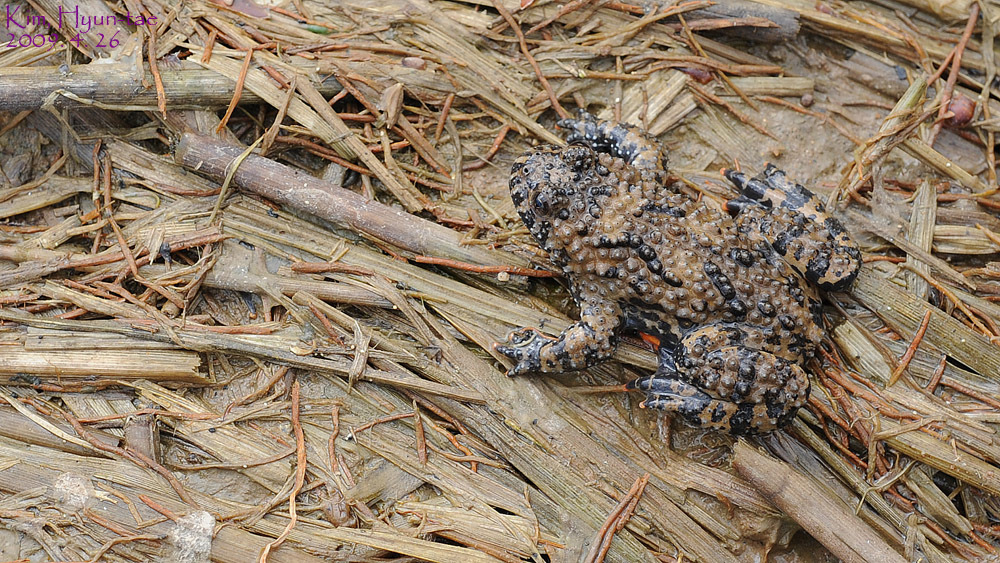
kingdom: Animalia
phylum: Chordata
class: Amphibia
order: Anura
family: Bombinatoridae
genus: Bombina
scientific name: Bombina orientalis
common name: Oriental firebelly toad
